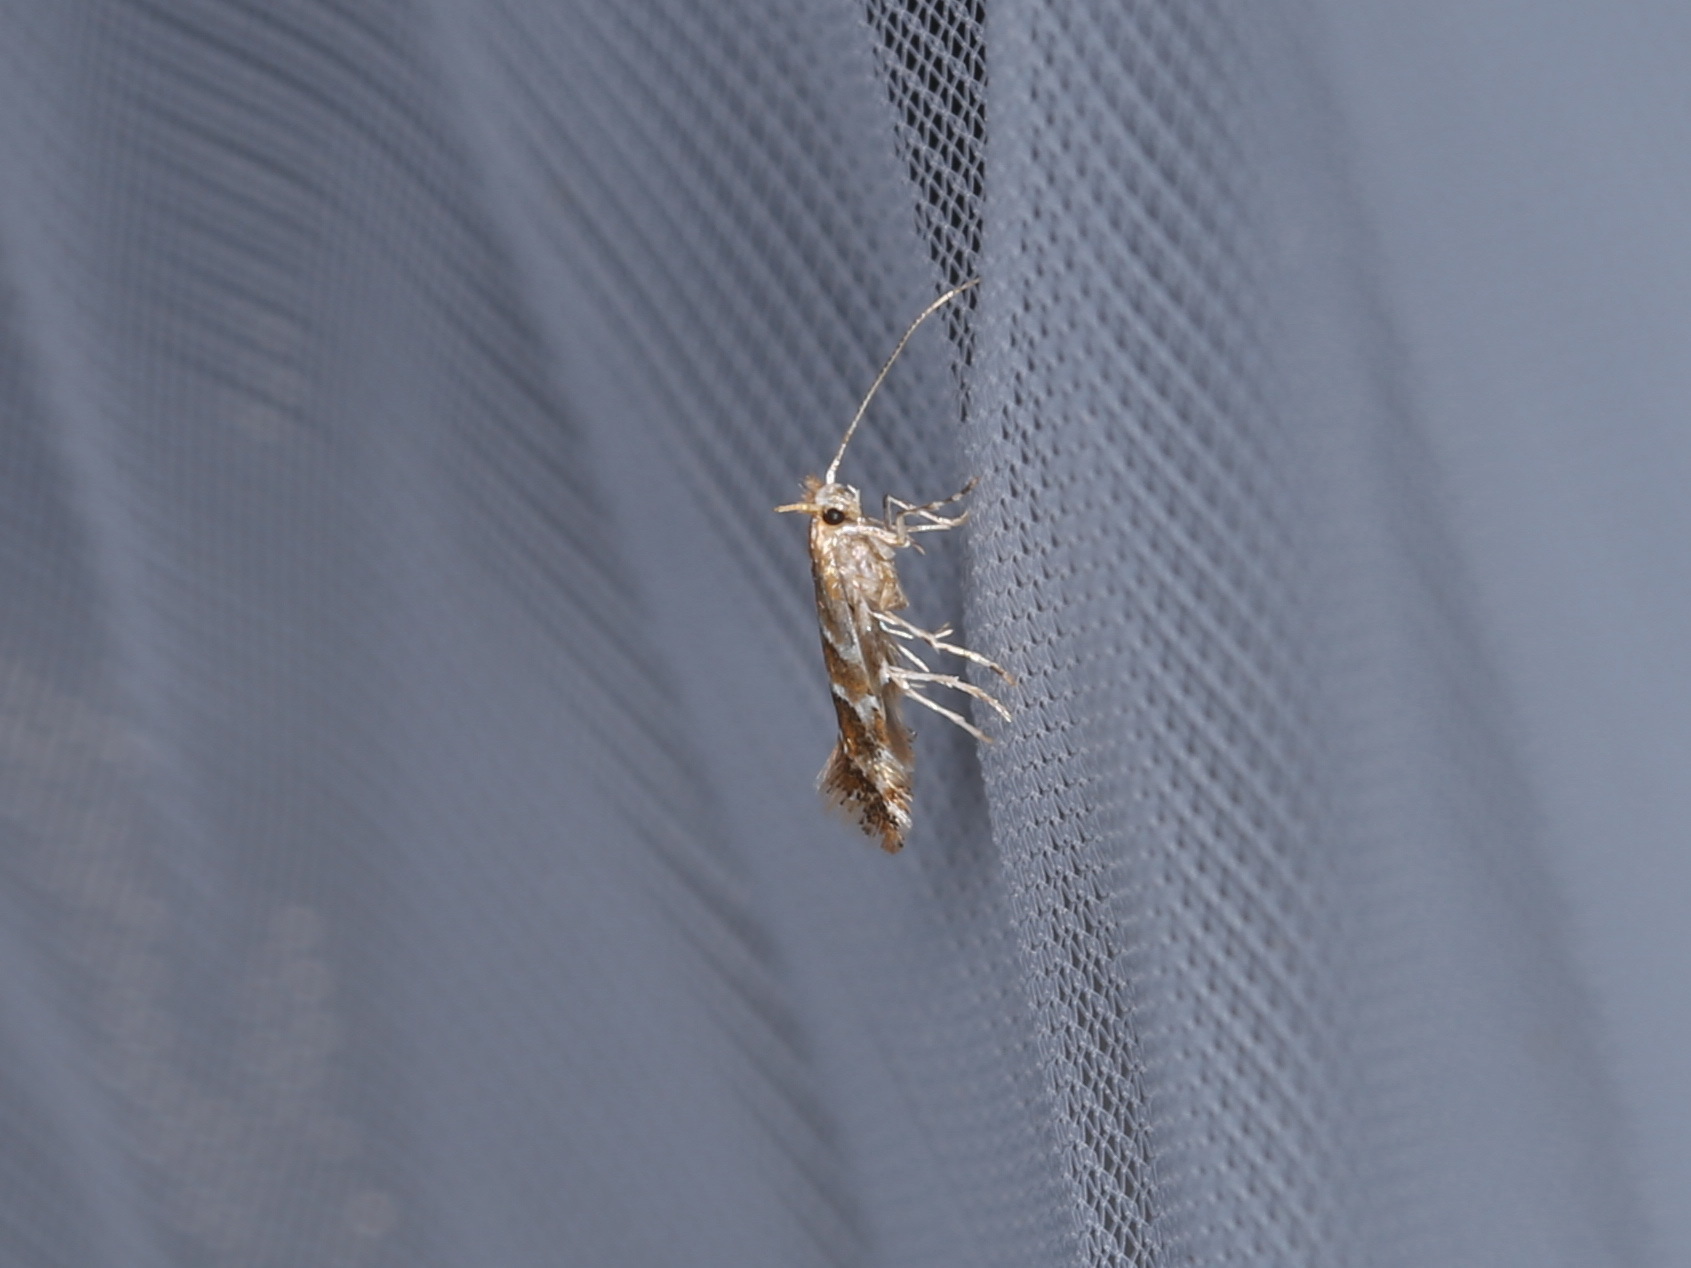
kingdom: Animalia
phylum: Arthropoda
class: Insecta
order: Lepidoptera
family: Argyresthiidae
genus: Argyresthia
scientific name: Argyresthia brockeella
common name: Gold-ribbon argent
